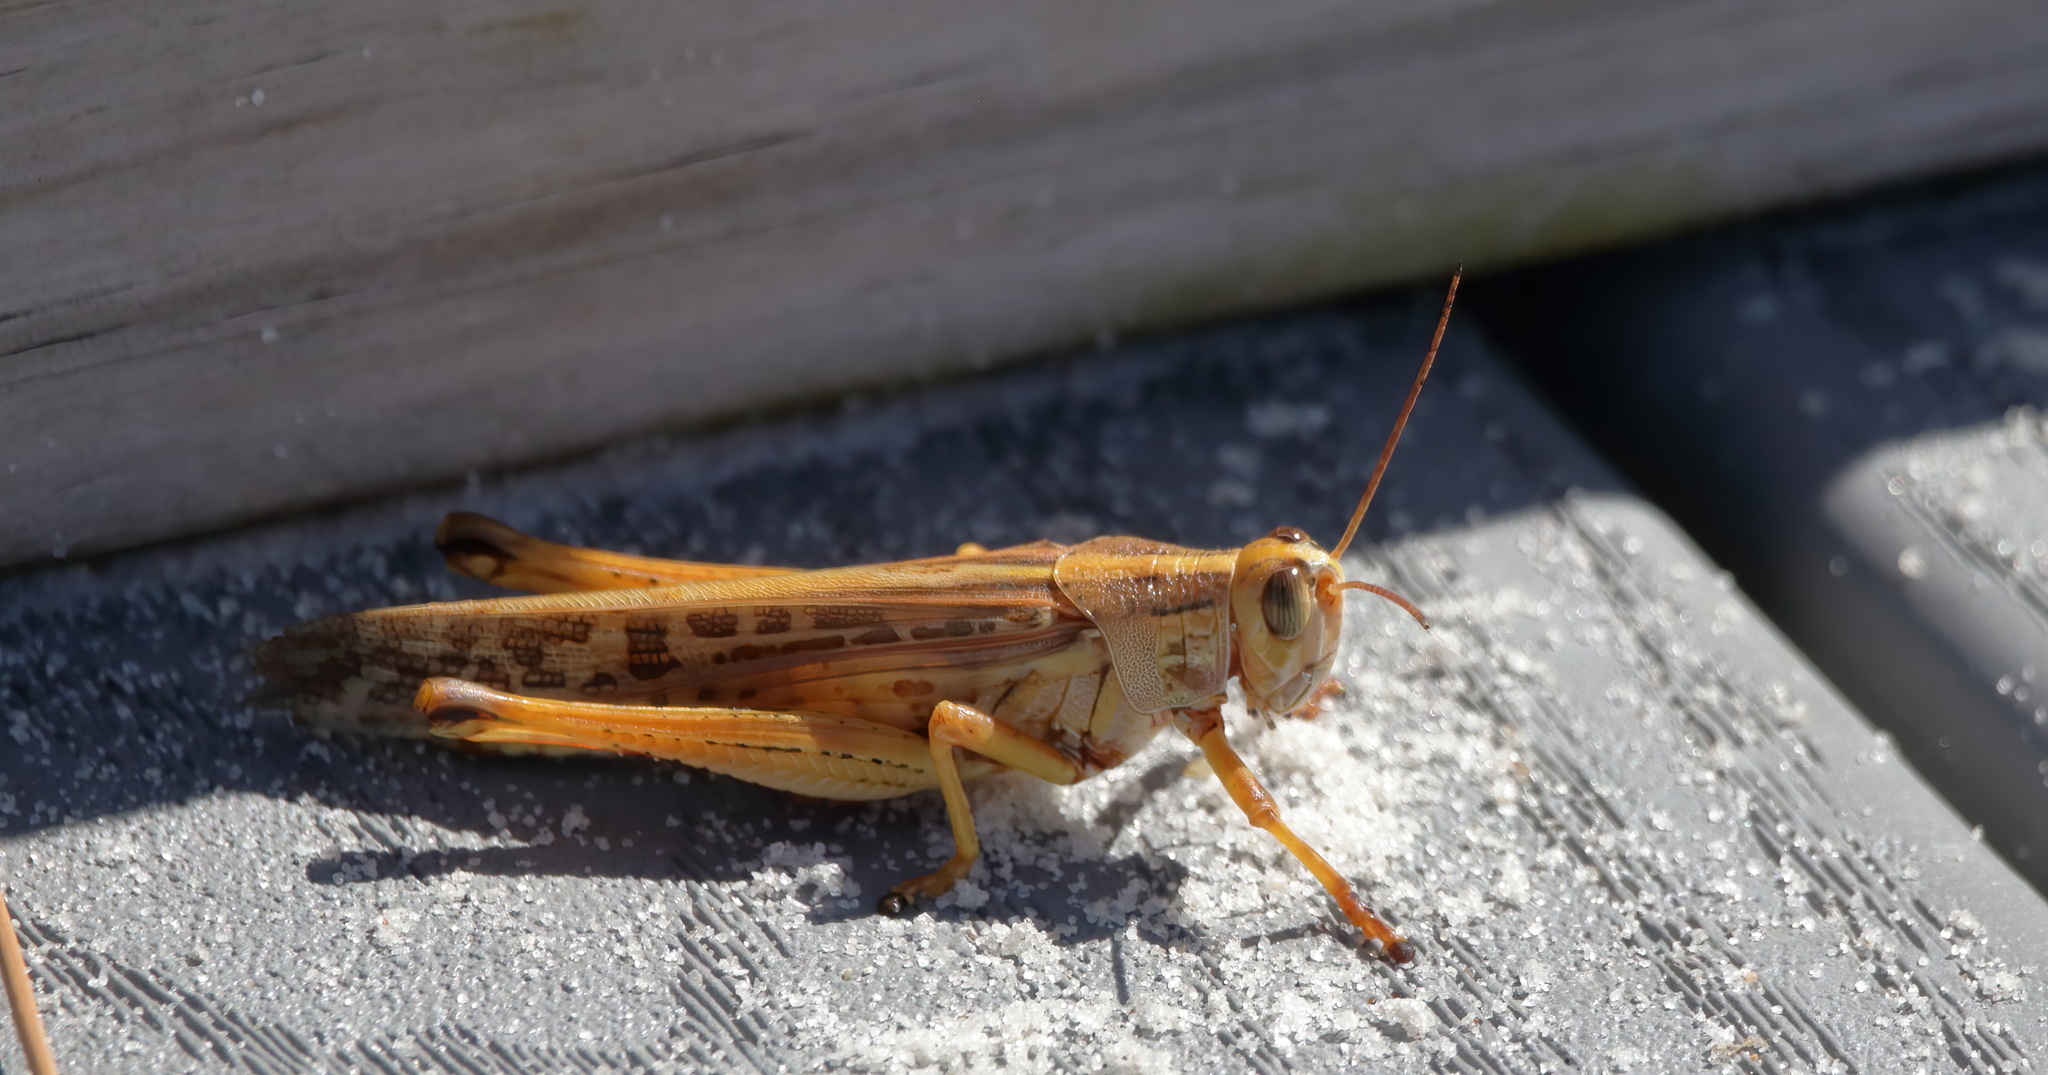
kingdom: Animalia
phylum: Arthropoda
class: Insecta
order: Orthoptera
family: Acrididae
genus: Schistocerca
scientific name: Schistocerca americana
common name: American bird locust
